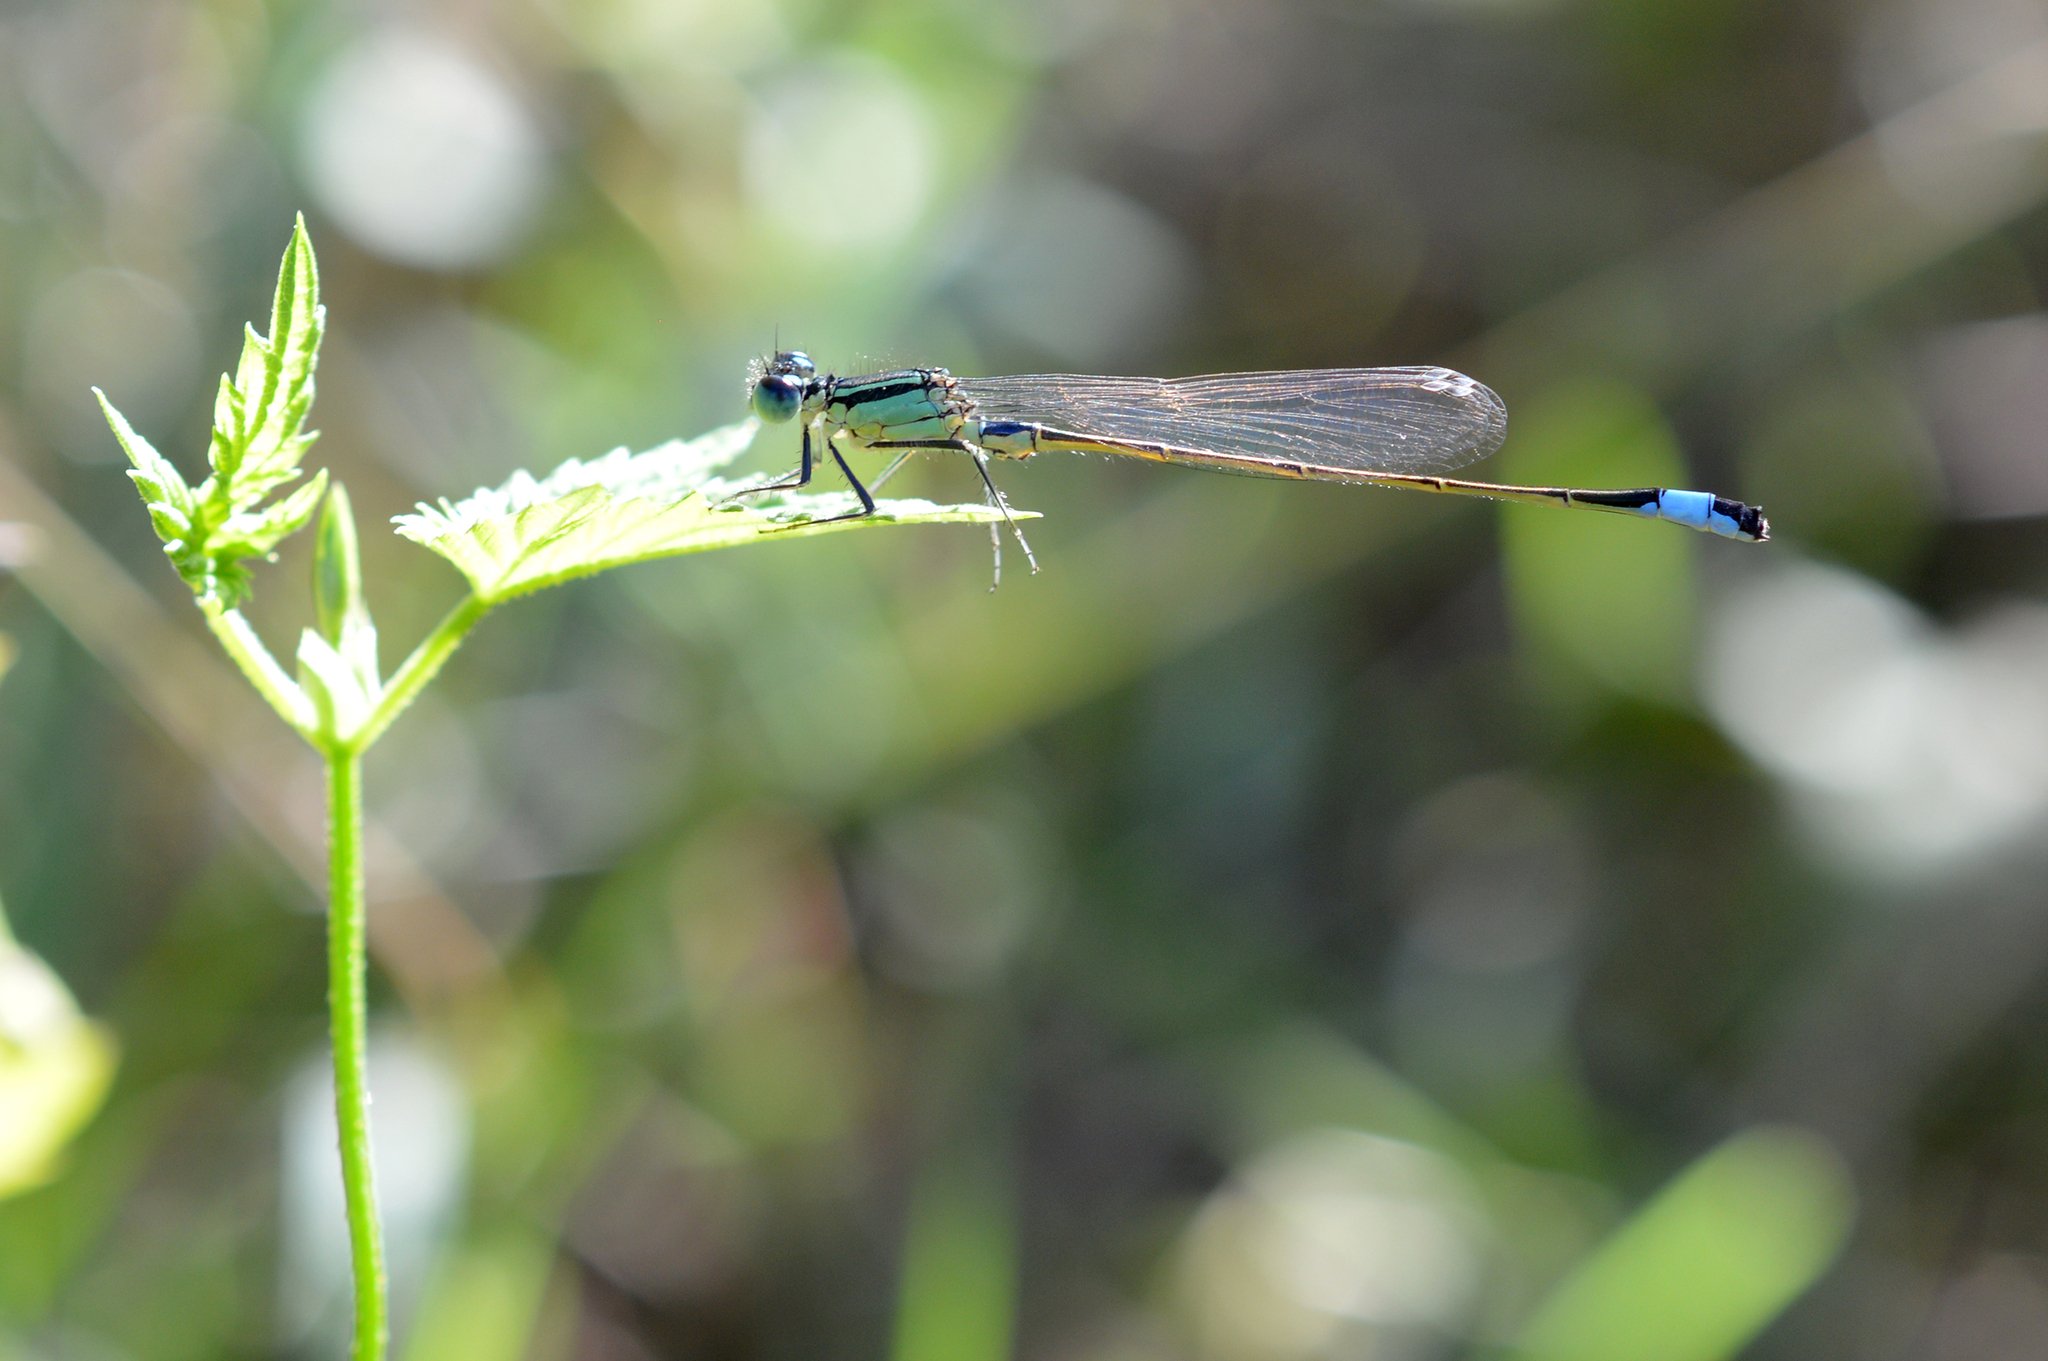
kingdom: Animalia
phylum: Arthropoda
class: Insecta
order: Odonata
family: Coenagrionidae
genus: Ischnura
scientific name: Ischnura elegans
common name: Blue-tailed damselfly
